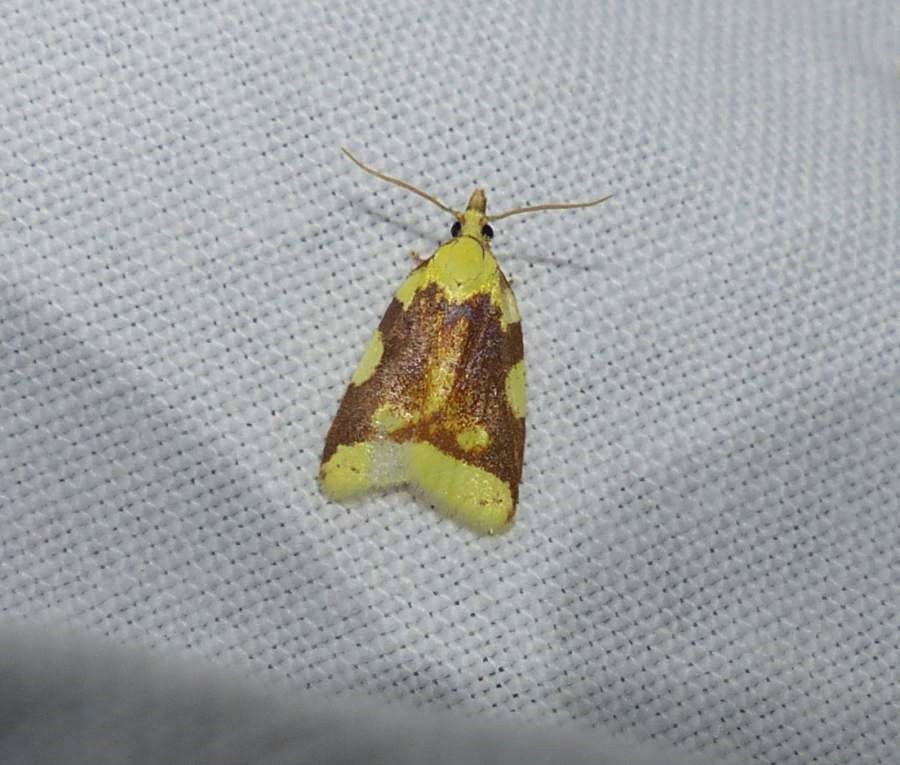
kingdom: Animalia
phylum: Arthropoda
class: Insecta
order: Lepidoptera
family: Tortricidae
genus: Cenopis
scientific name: Cenopis niveana
